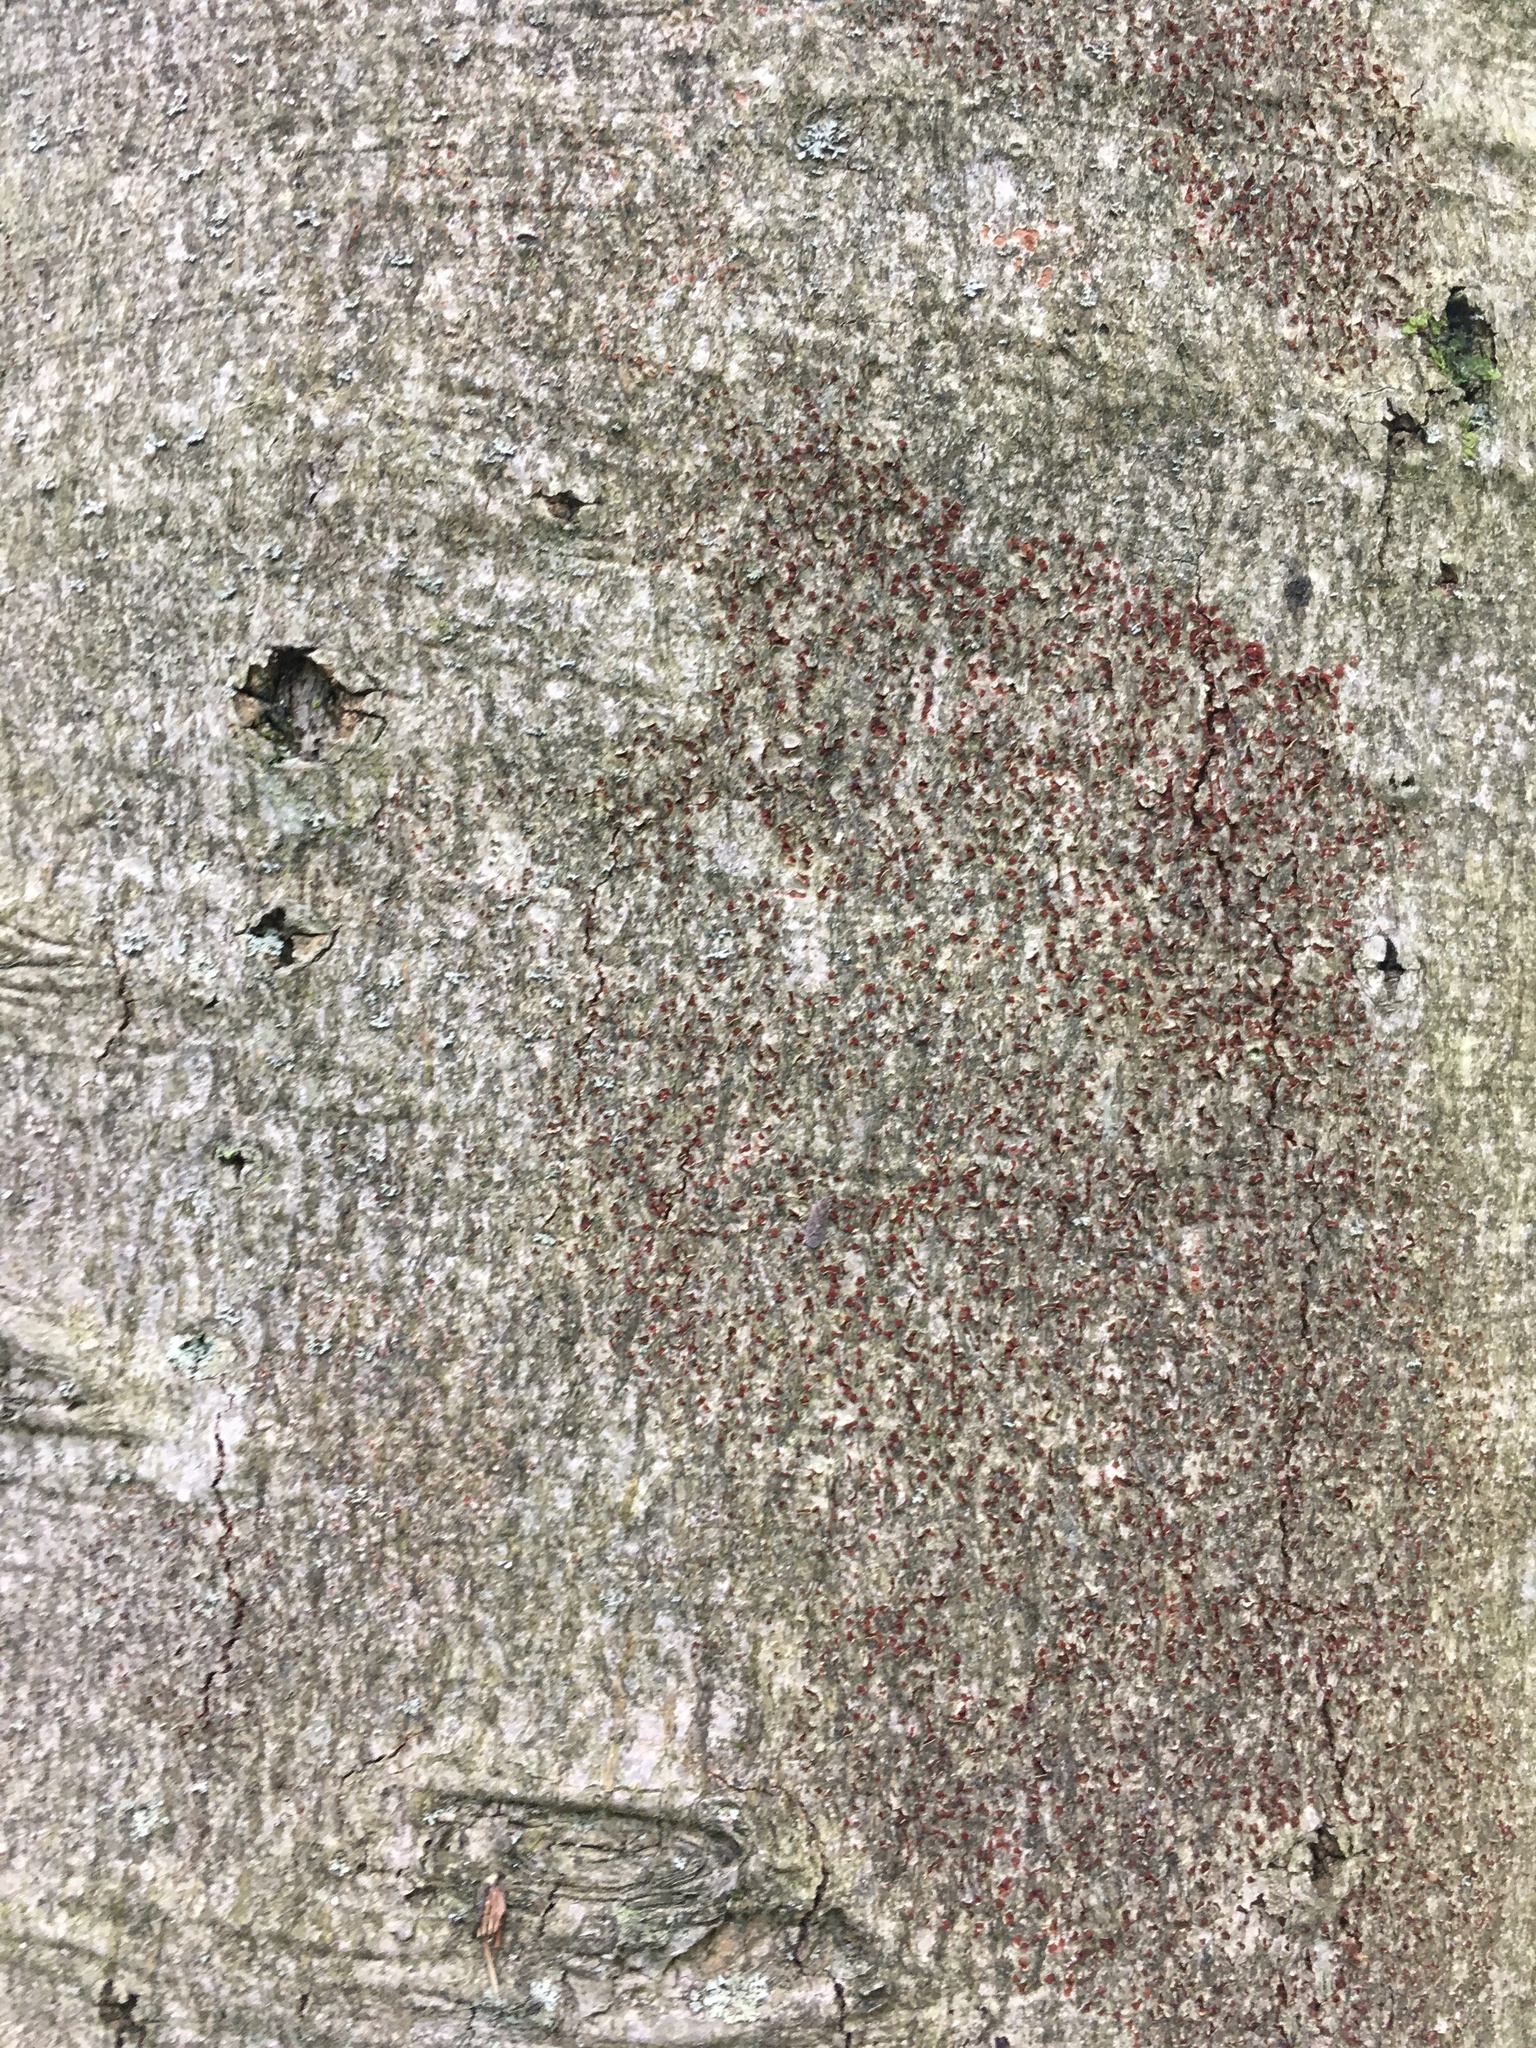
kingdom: Plantae
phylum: Tracheophyta
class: Magnoliopsida
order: Fagales
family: Fagaceae
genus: Fagus
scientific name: Fagus grandifolia
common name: American beech
